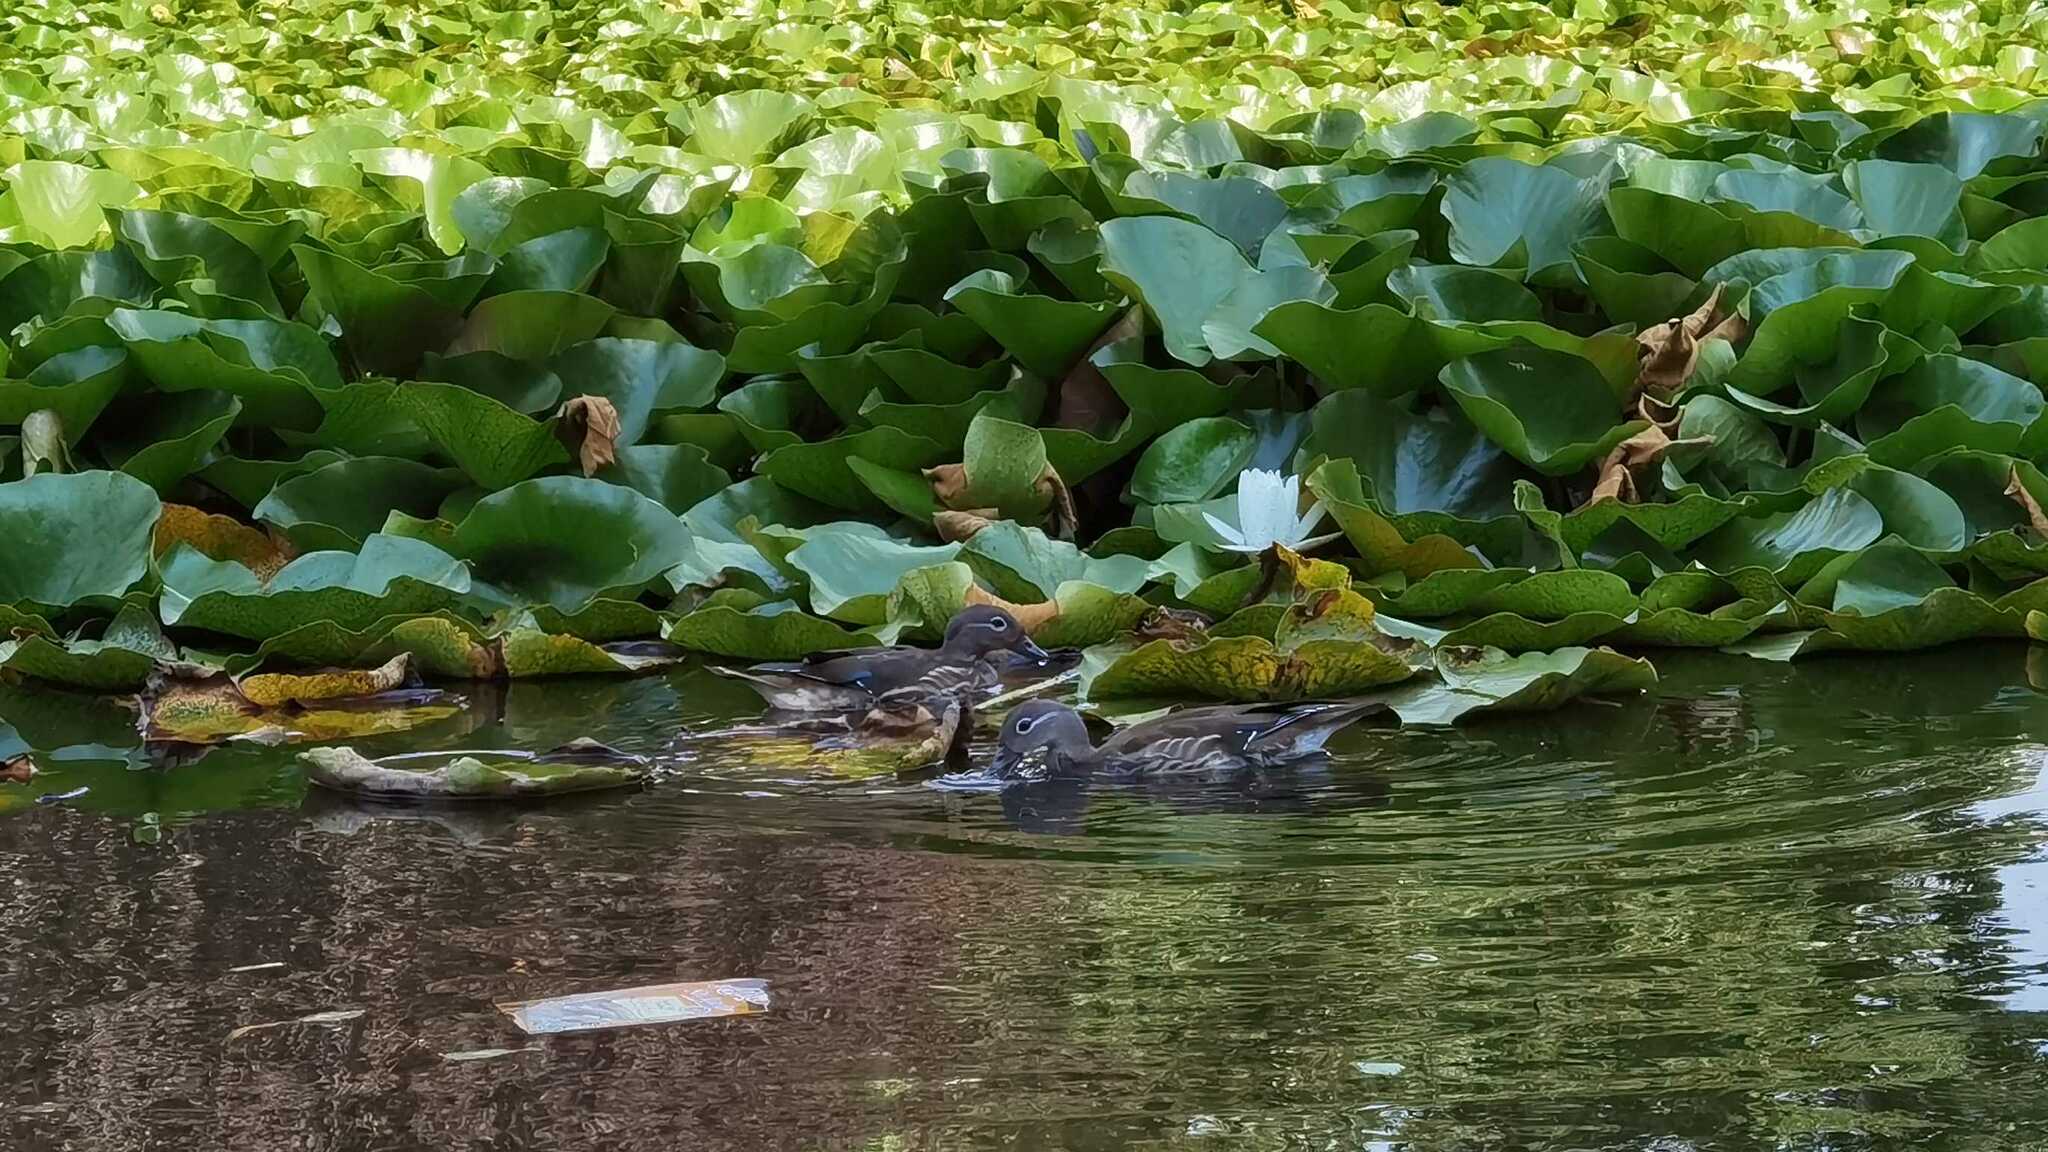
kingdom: Animalia
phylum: Chordata
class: Aves
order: Anseriformes
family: Anatidae
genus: Aix
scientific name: Aix galericulata
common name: Mandarin duck
